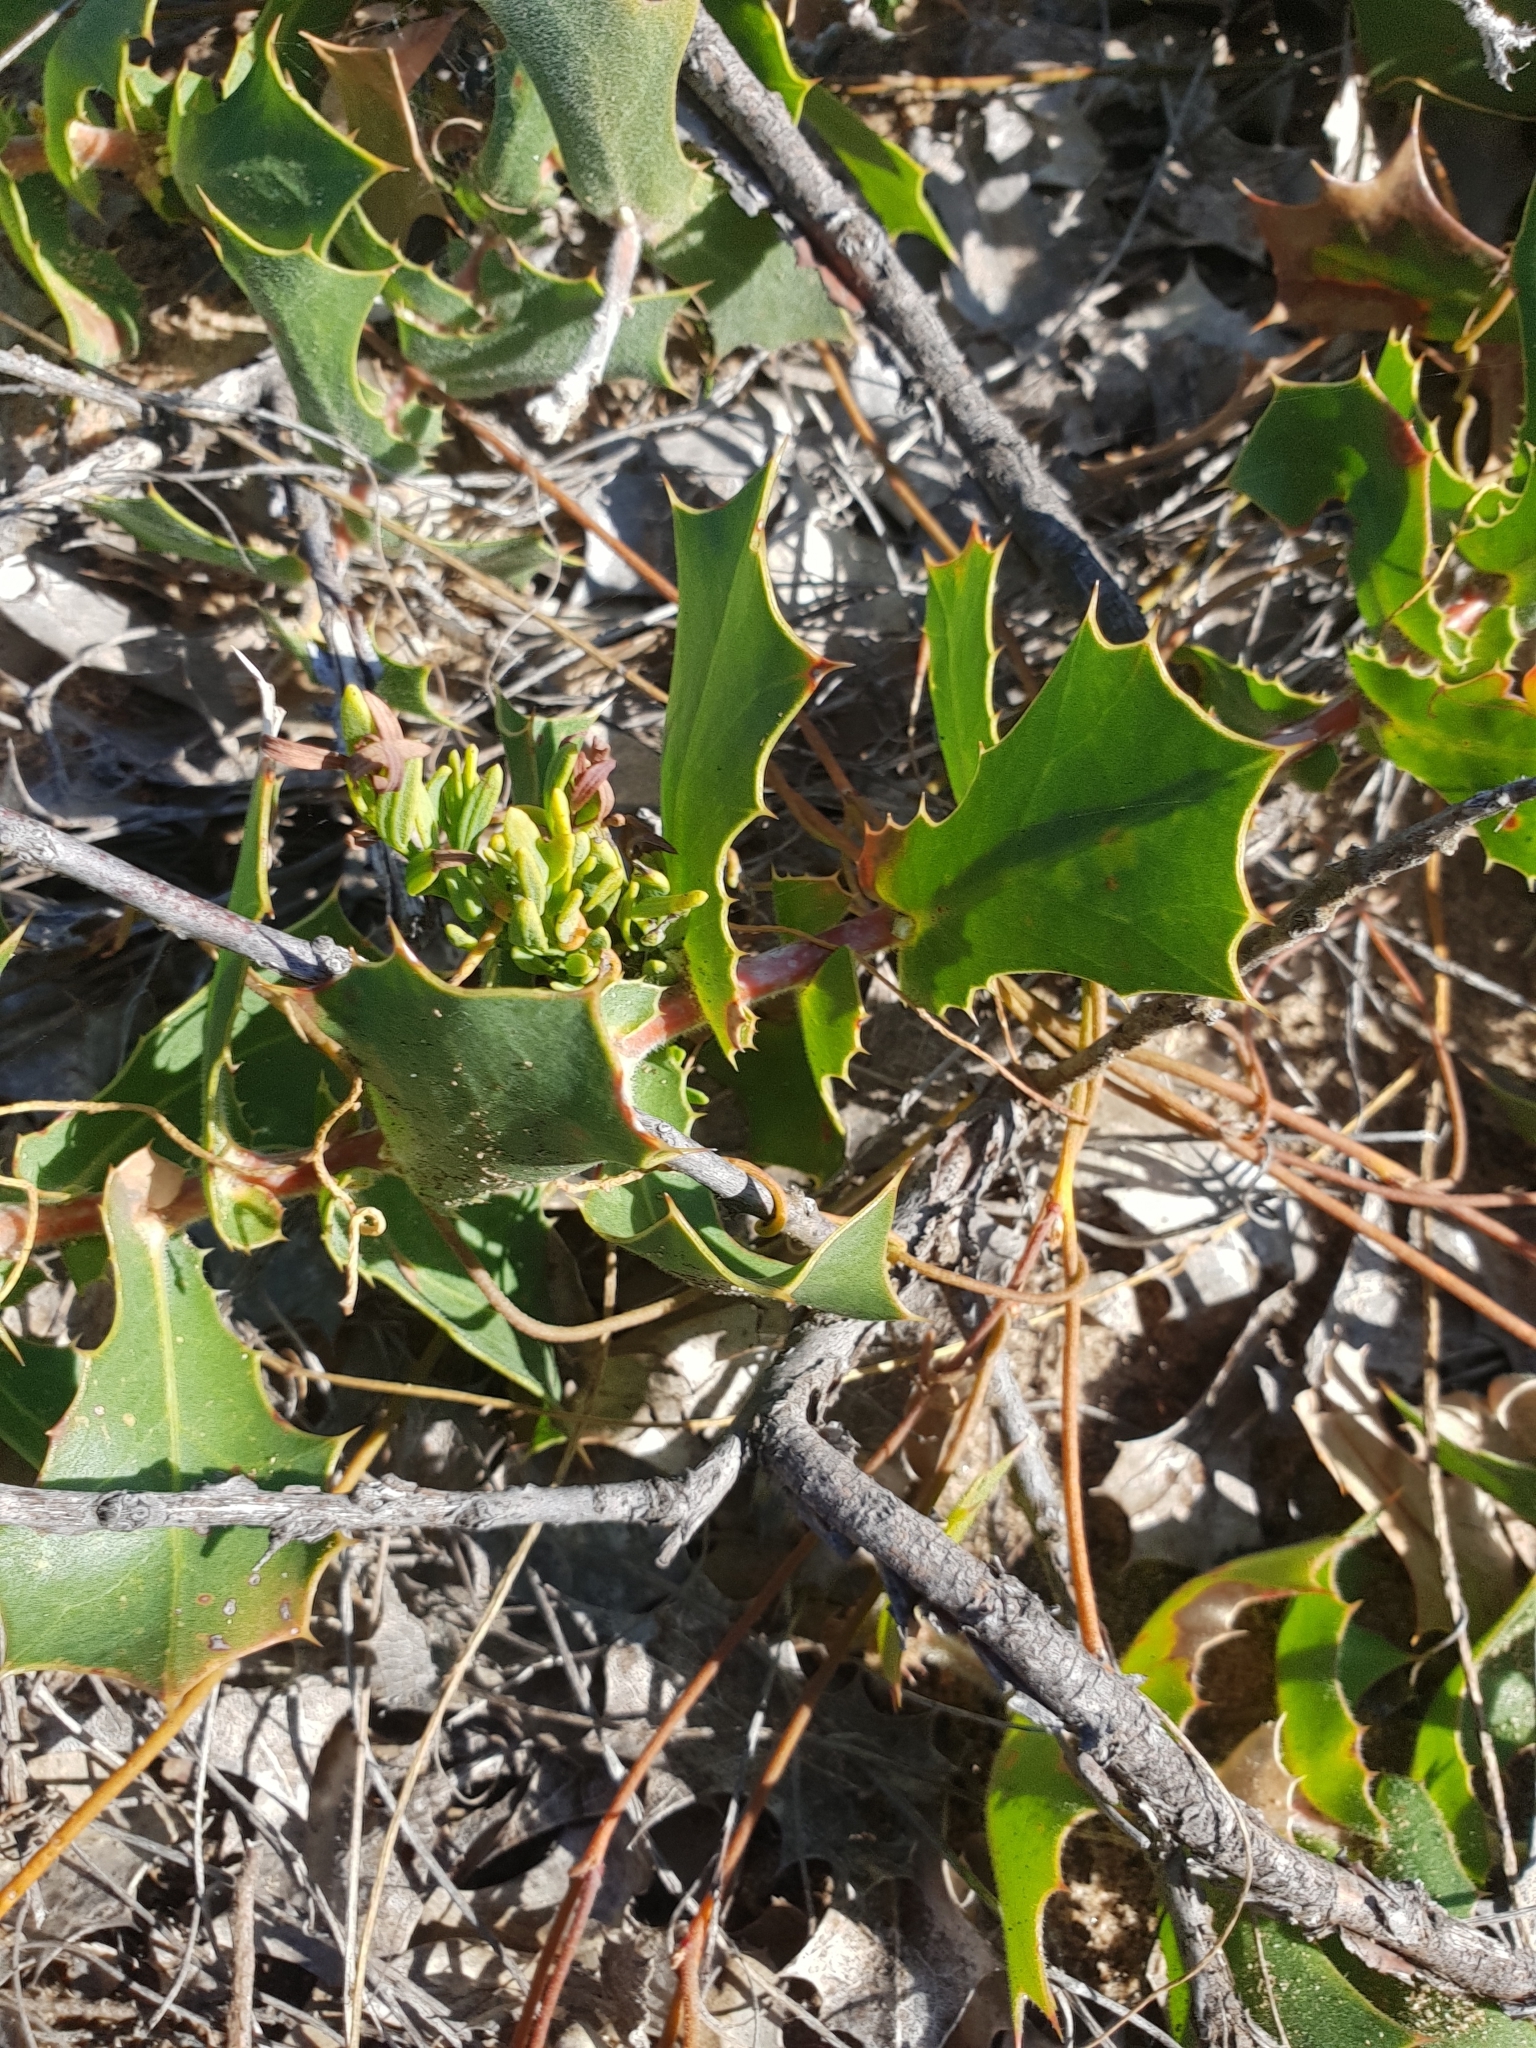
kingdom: Plantae
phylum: Tracheophyta
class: Magnoliopsida
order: Proteales
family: Proteaceae
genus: Hakea
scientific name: Hakea prostrata
